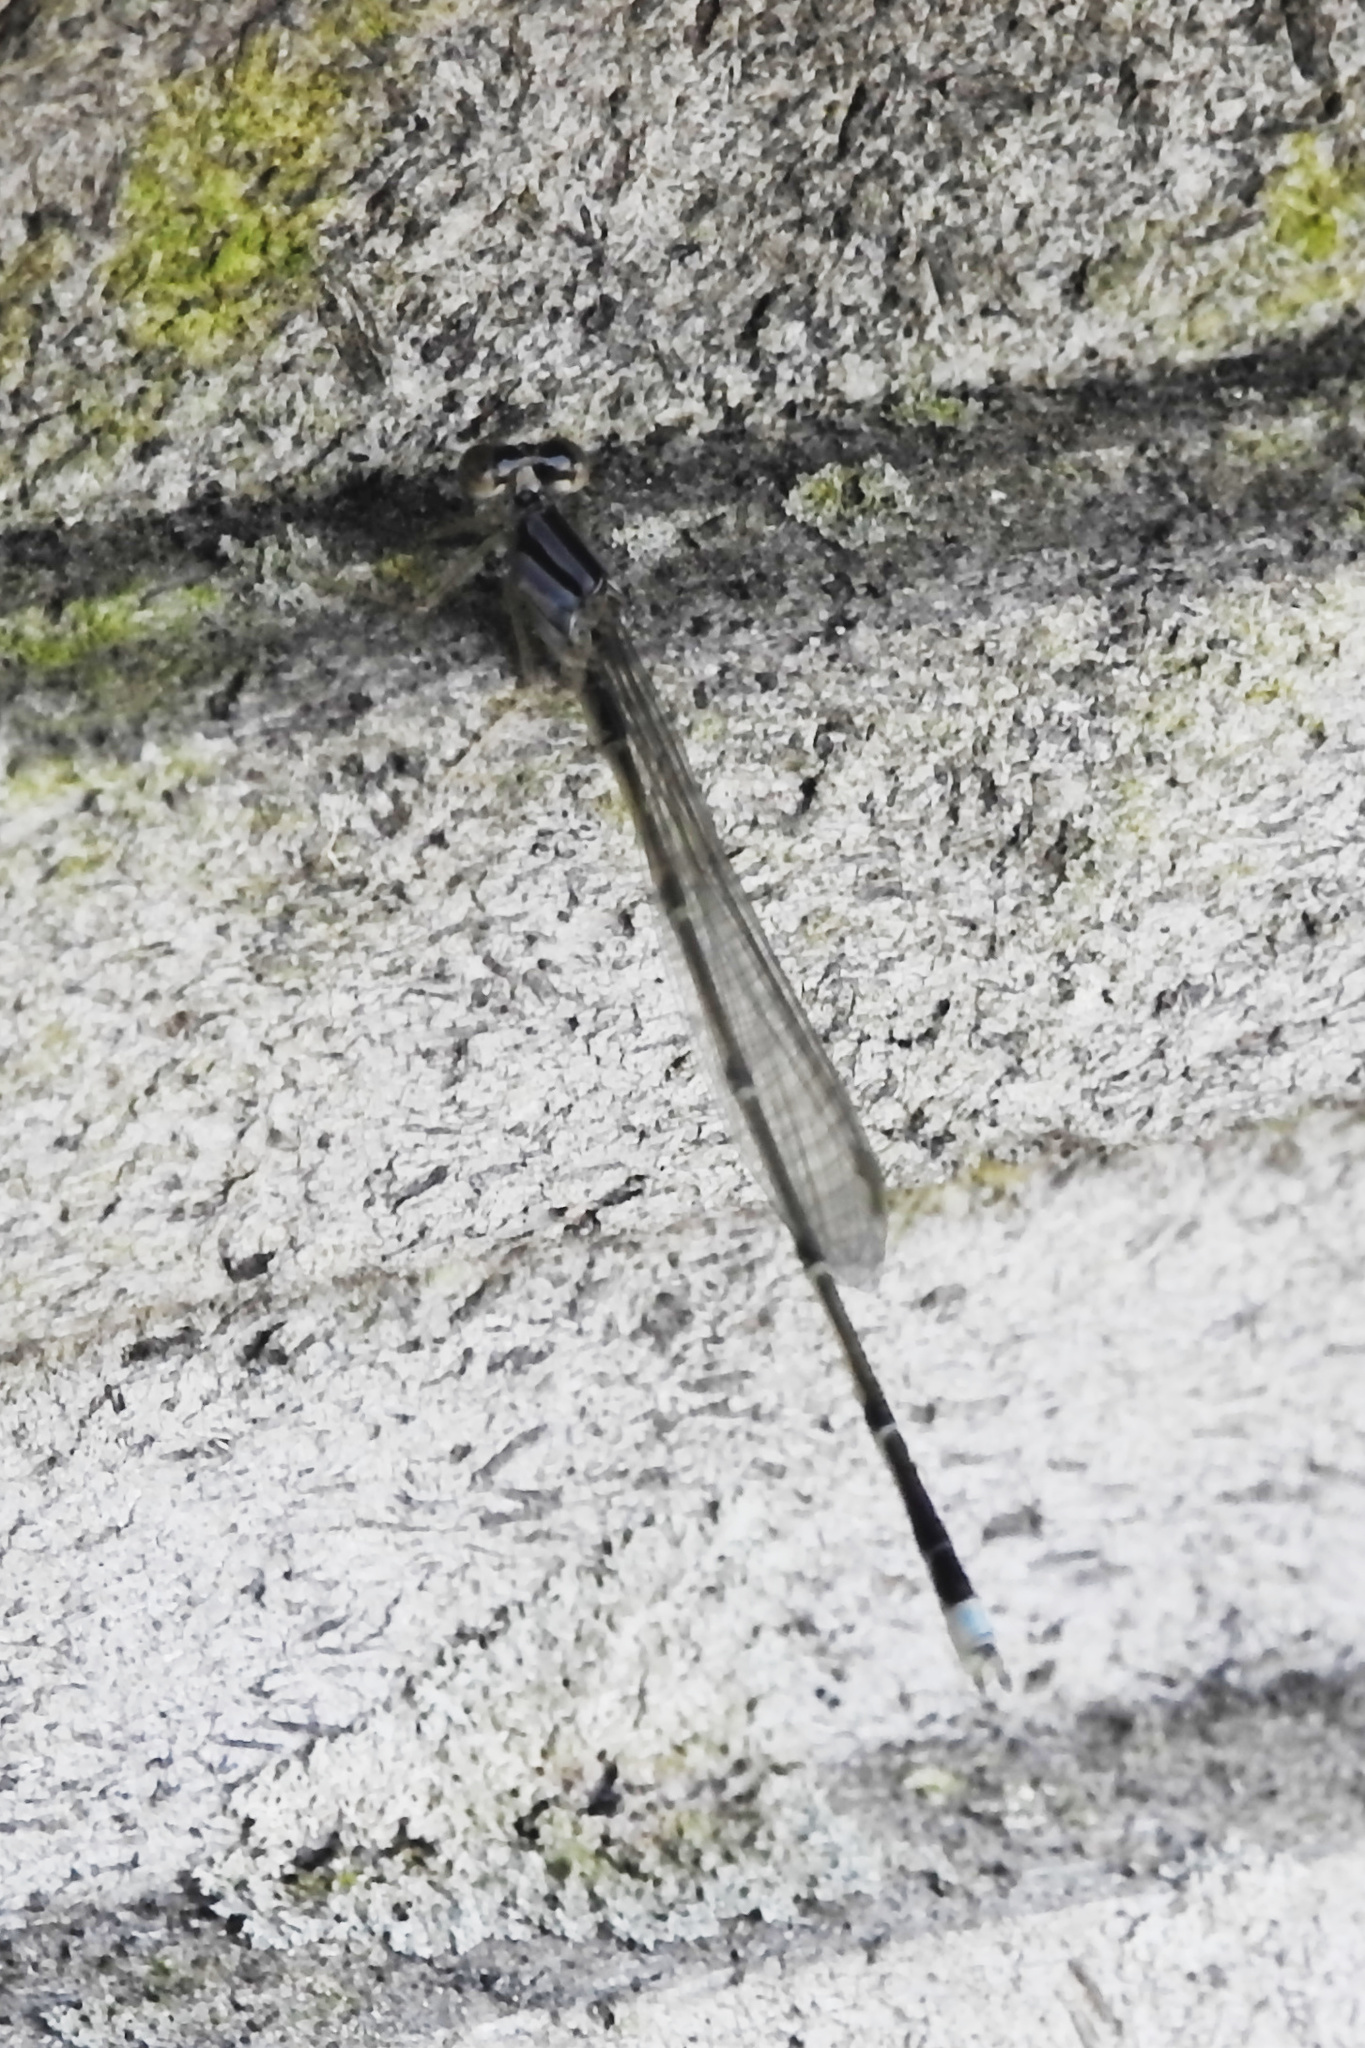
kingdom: Animalia
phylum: Arthropoda
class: Insecta
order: Odonata
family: Coenagrionidae
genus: Enallagma
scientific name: Enallagma signatum
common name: Orange bluet
